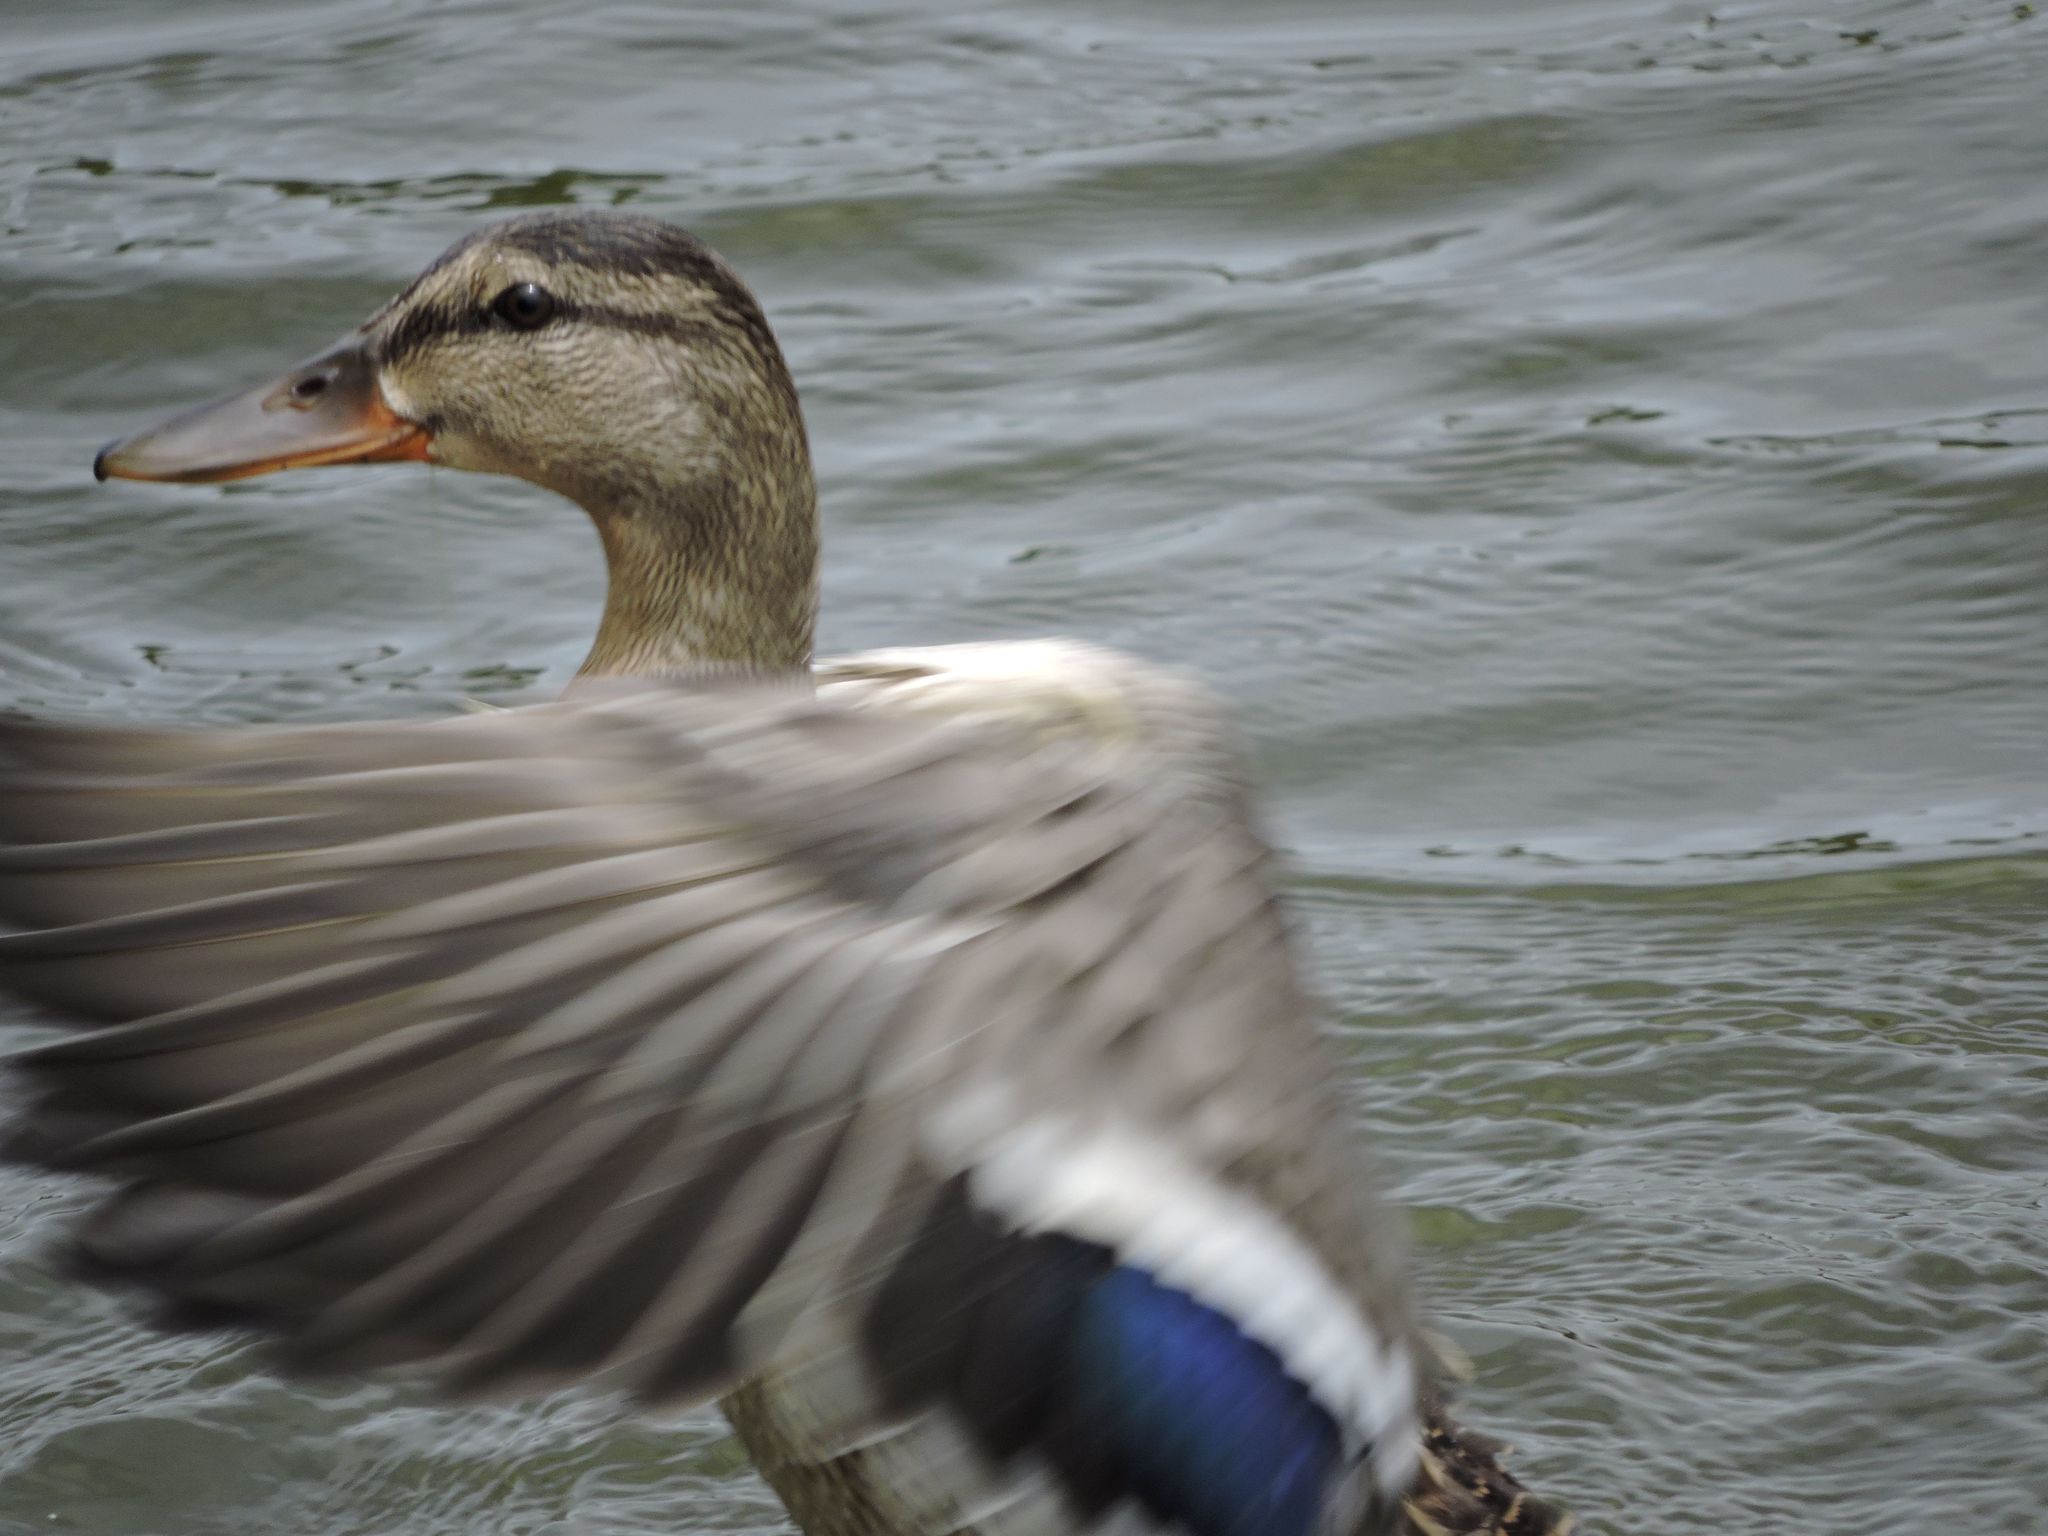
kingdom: Animalia
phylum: Chordata
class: Aves
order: Anseriformes
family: Anatidae
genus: Anas
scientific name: Anas platyrhynchos
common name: Mallard
